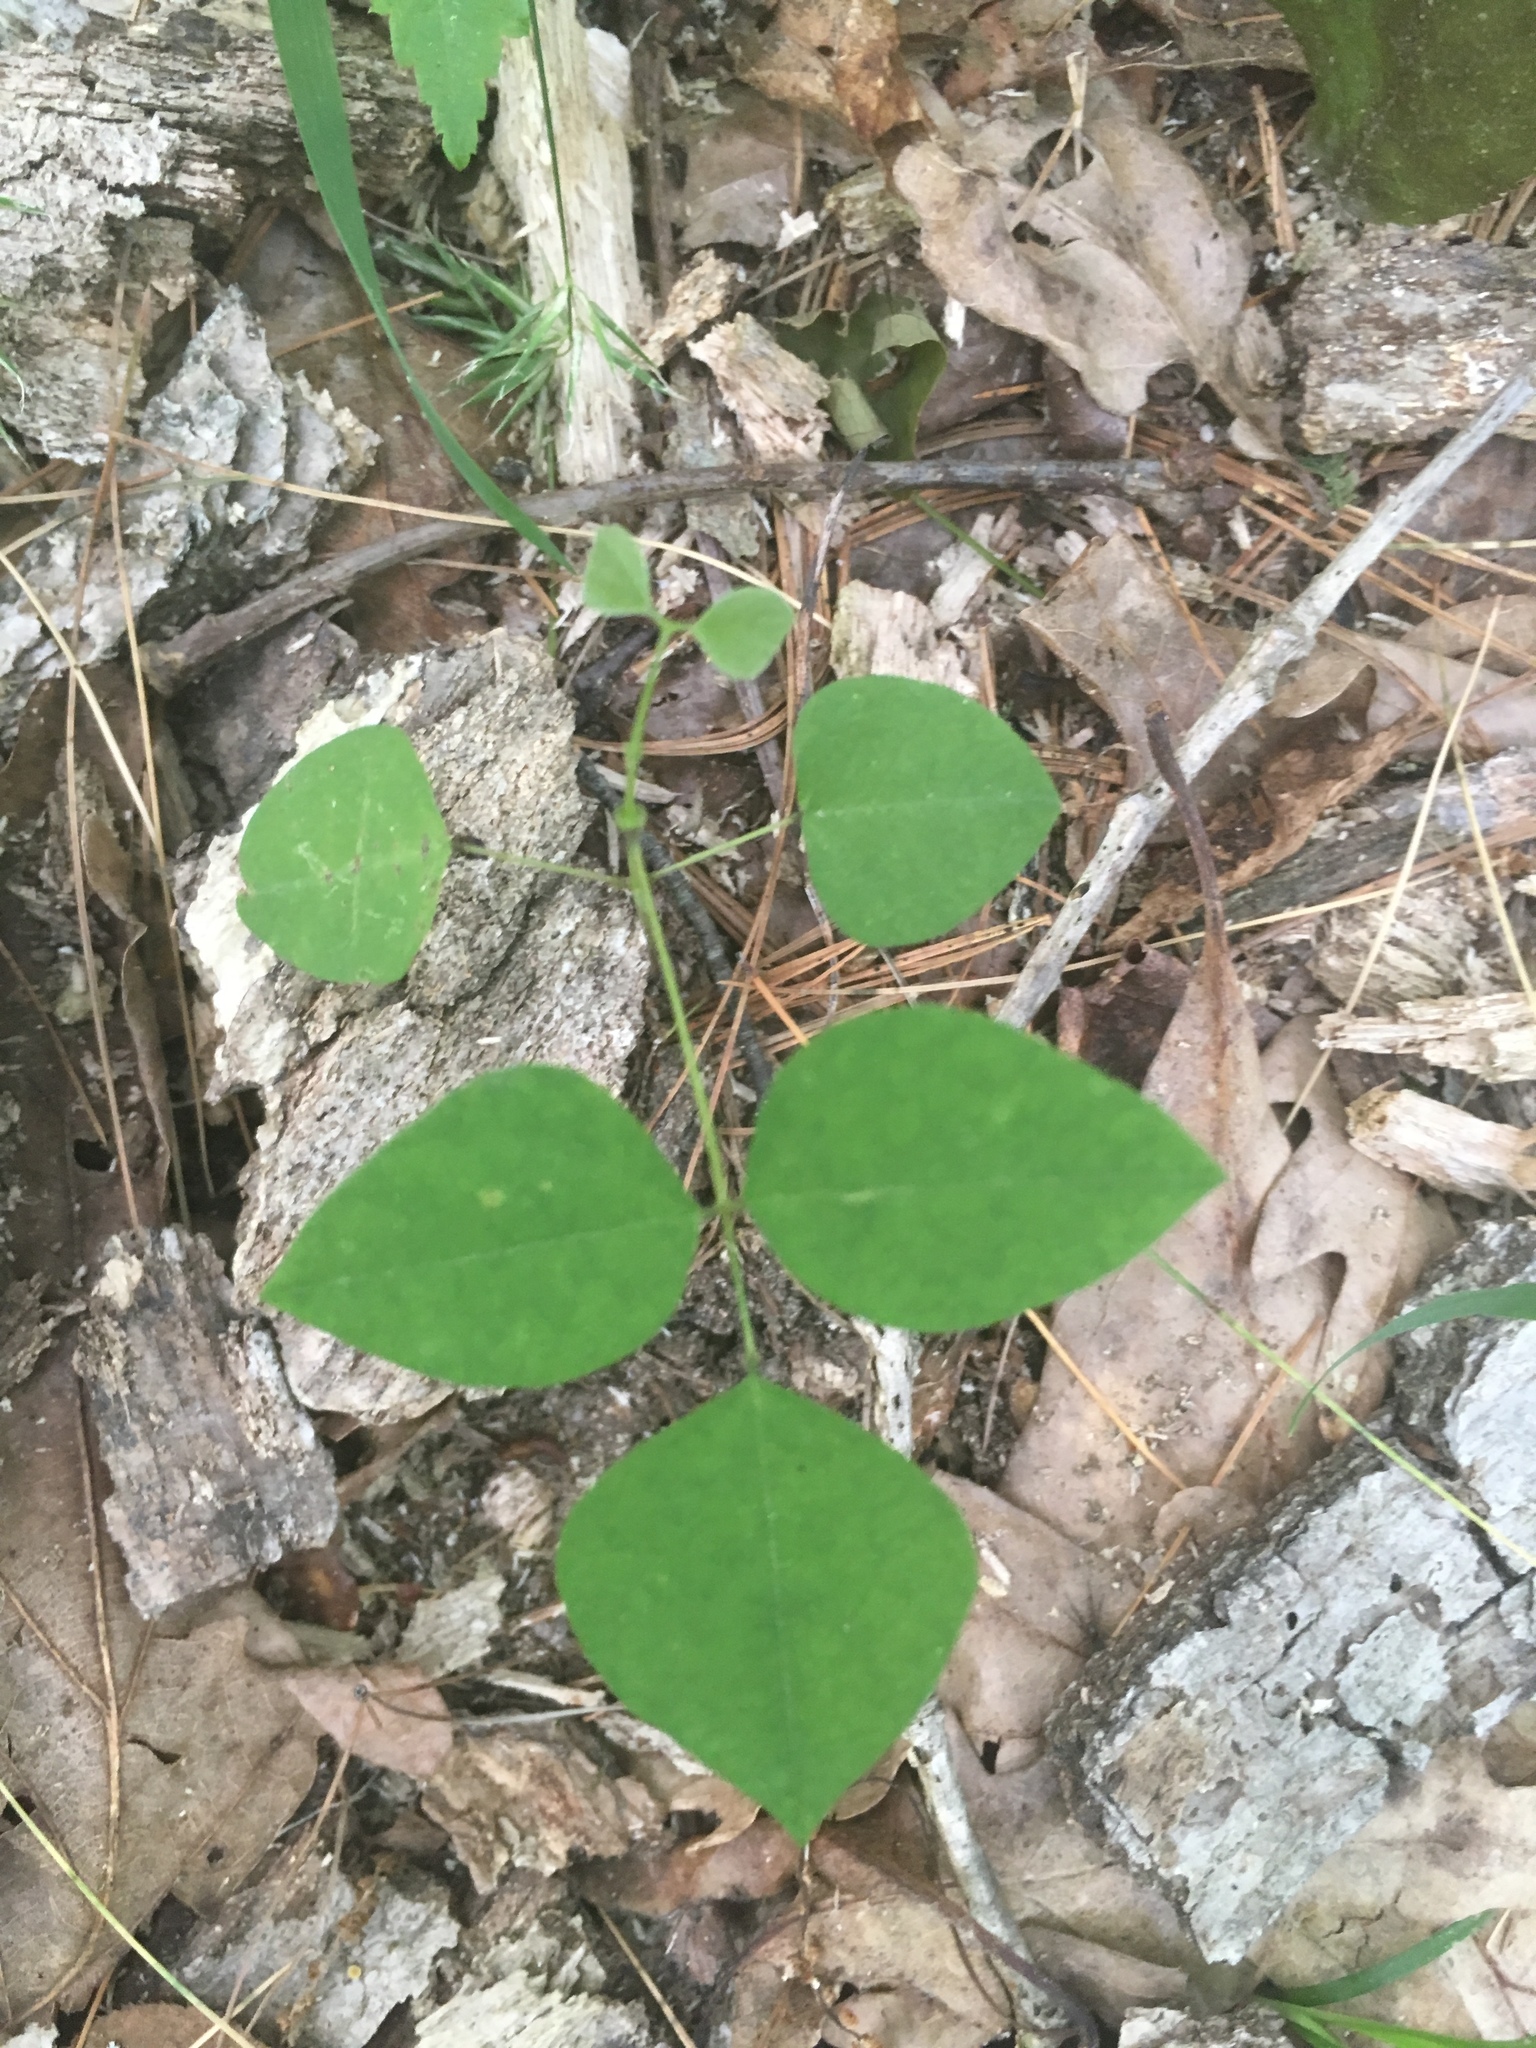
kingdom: Plantae
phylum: Tracheophyta
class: Magnoliopsida
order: Fabales
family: Fabaceae
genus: Amphicarpaea
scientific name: Amphicarpaea bracteata
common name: American hog peanut
